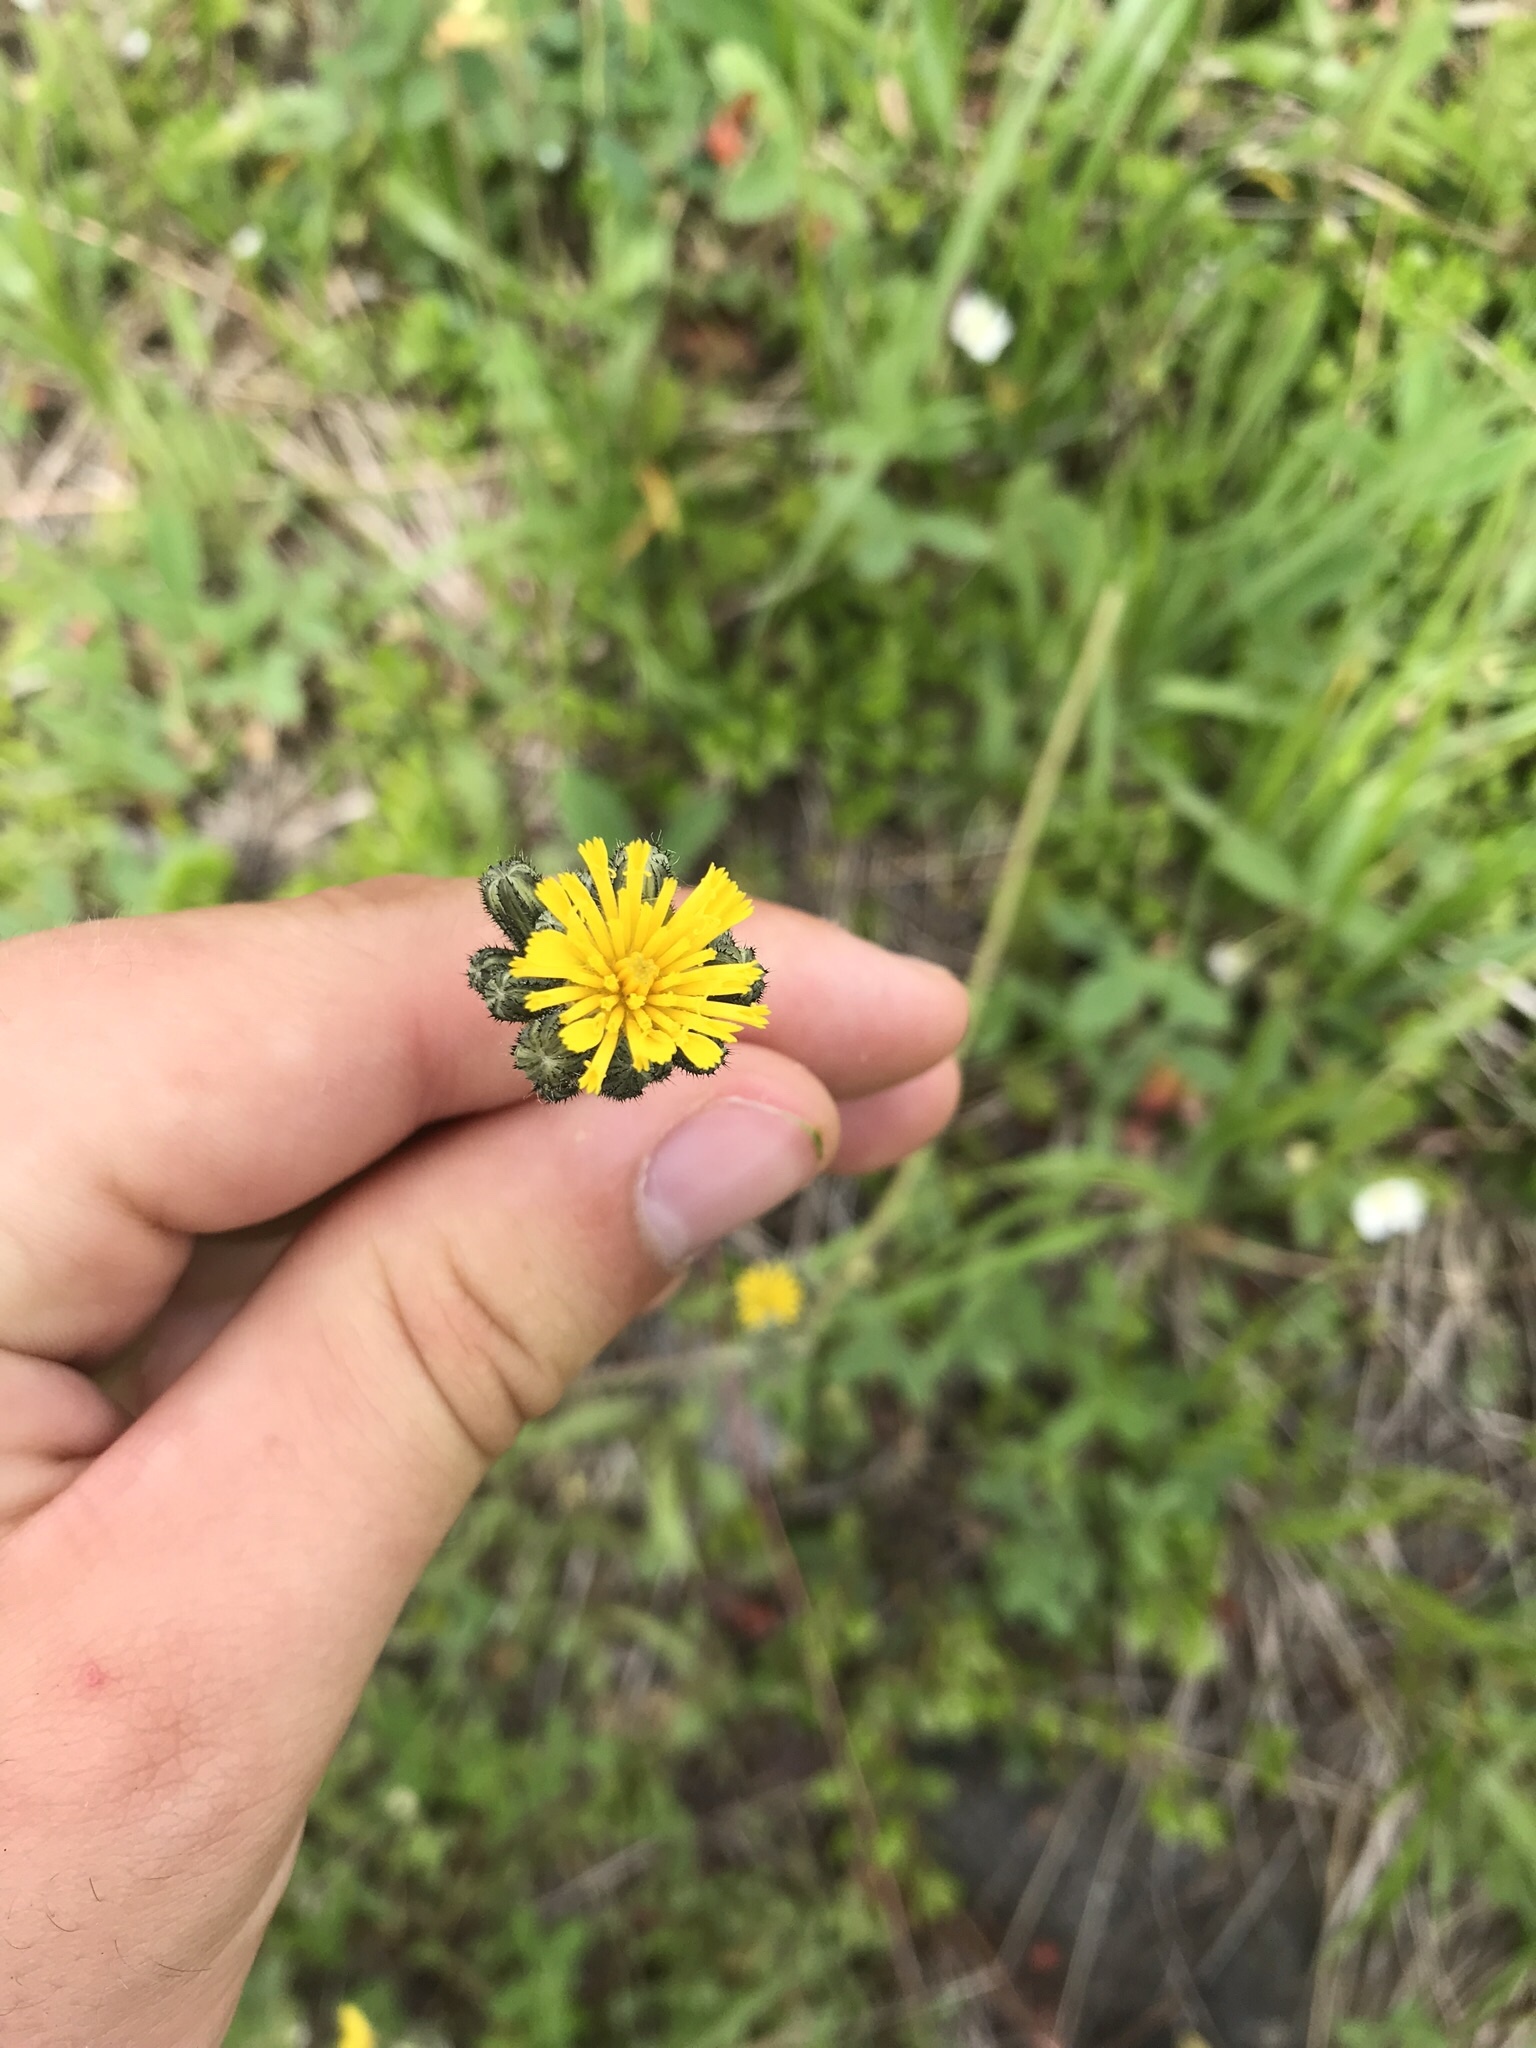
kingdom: Plantae
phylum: Tracheophyta
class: Magnoliopsida
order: Asterales
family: Asteraceae
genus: Pilosella
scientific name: Pilosella caespitosa
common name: Yellow fox-and-cubs
